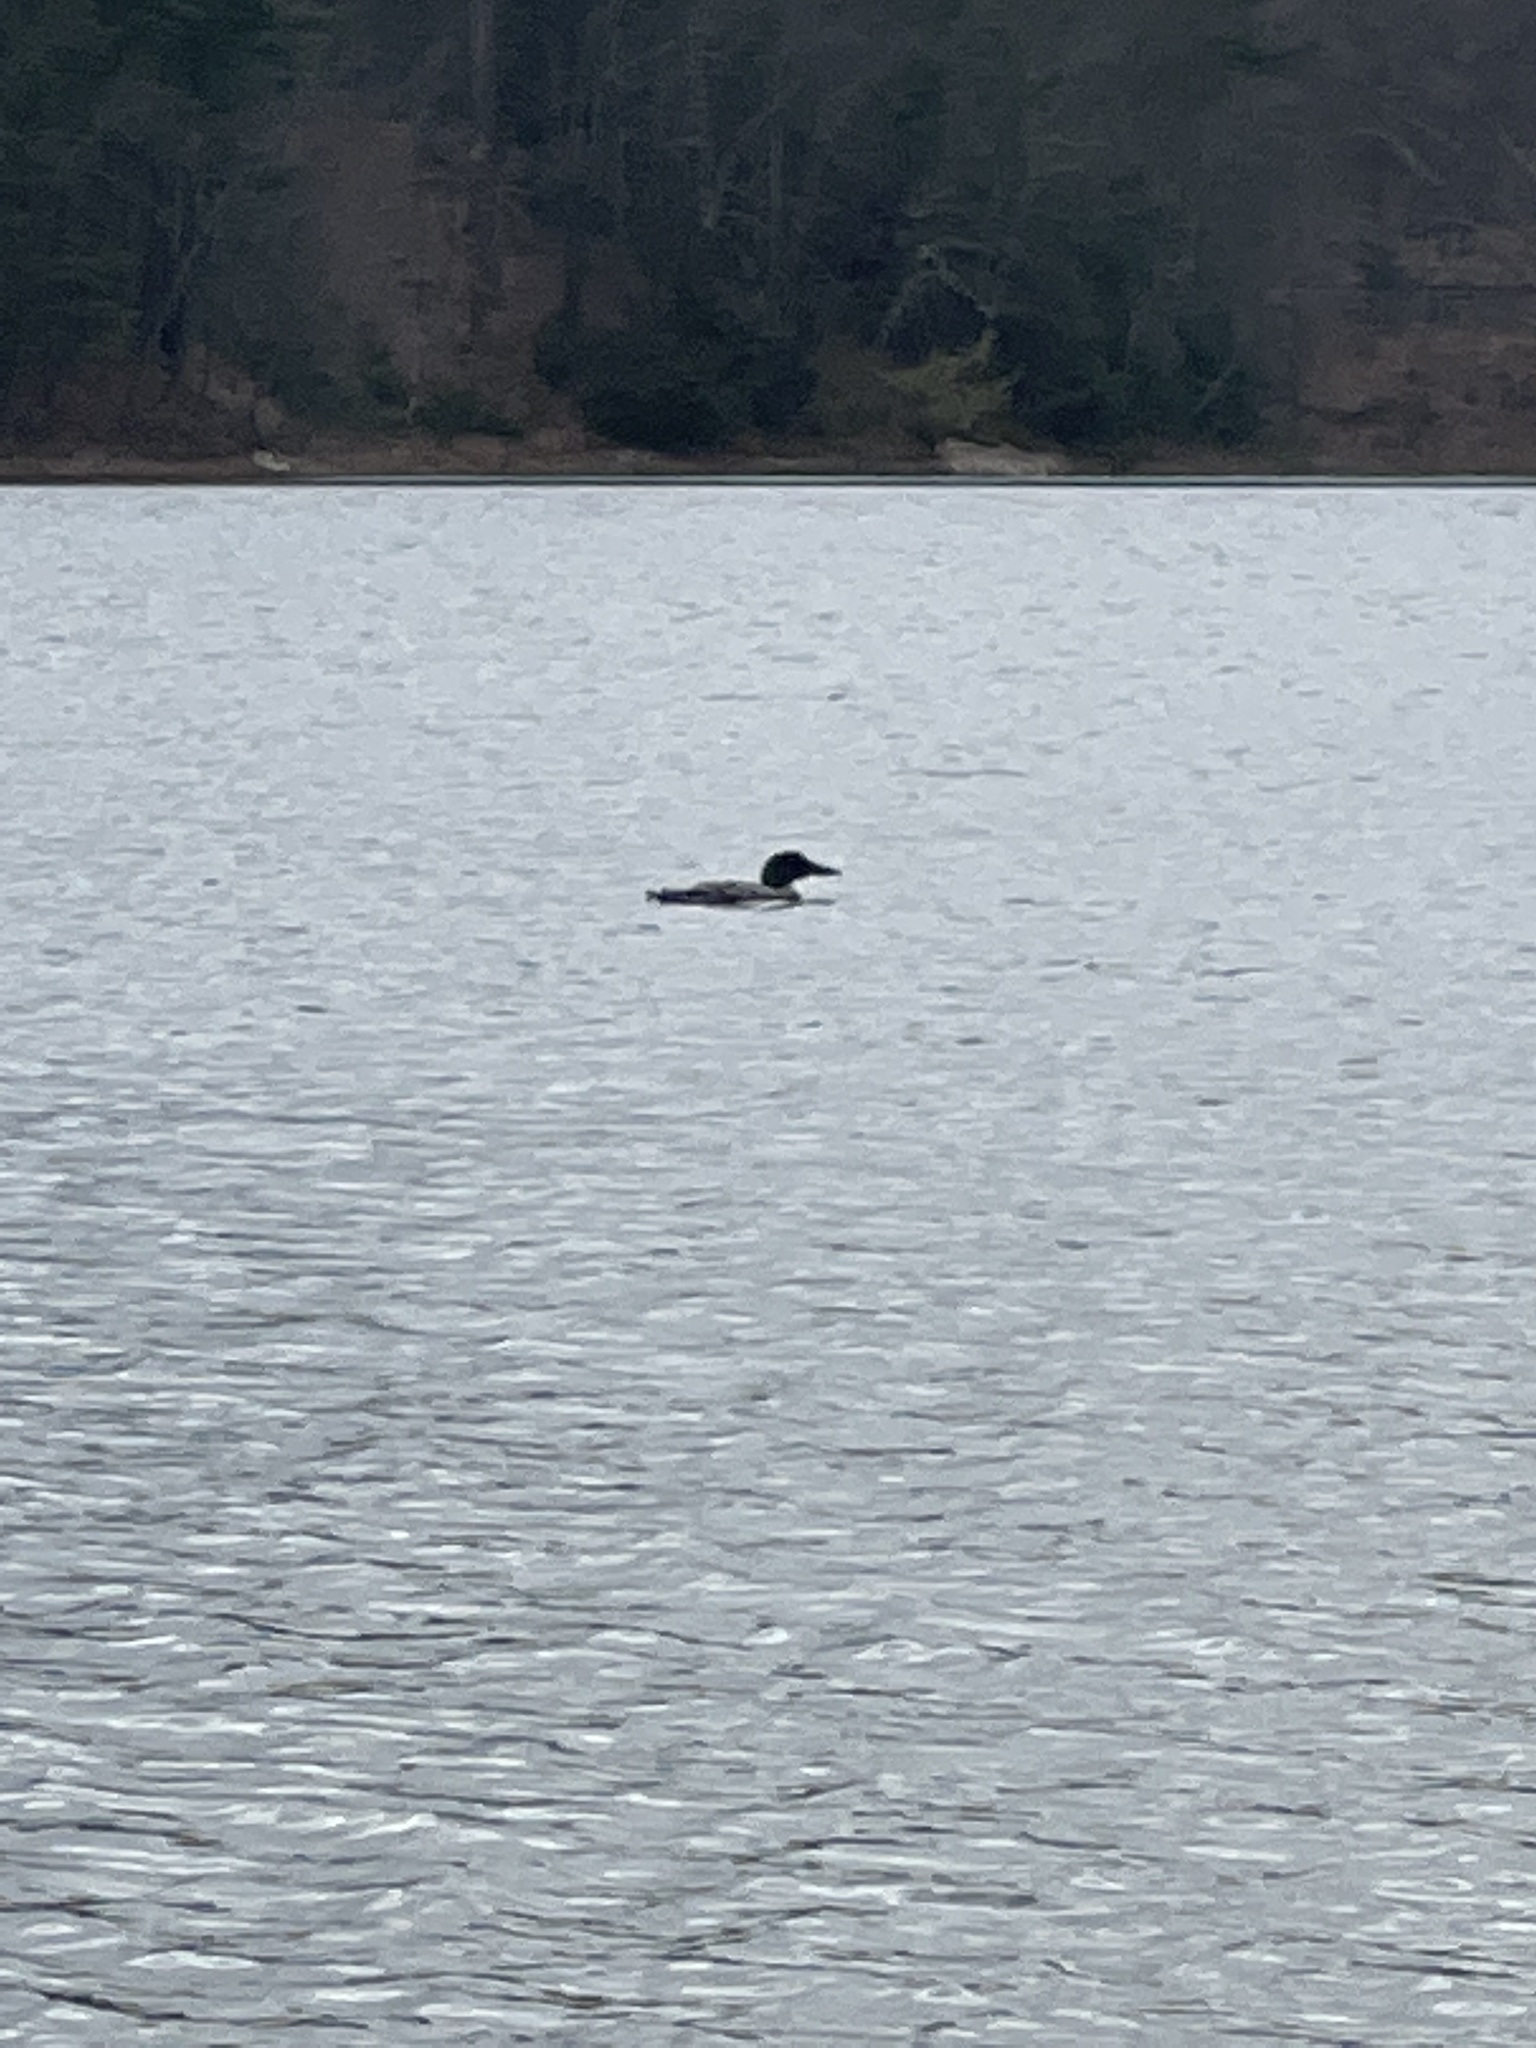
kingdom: Animalia
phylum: Chordata
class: Aves
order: Gaviiformes
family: Gaviidae
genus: Gavia
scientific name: Gavia immer
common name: Common loon
